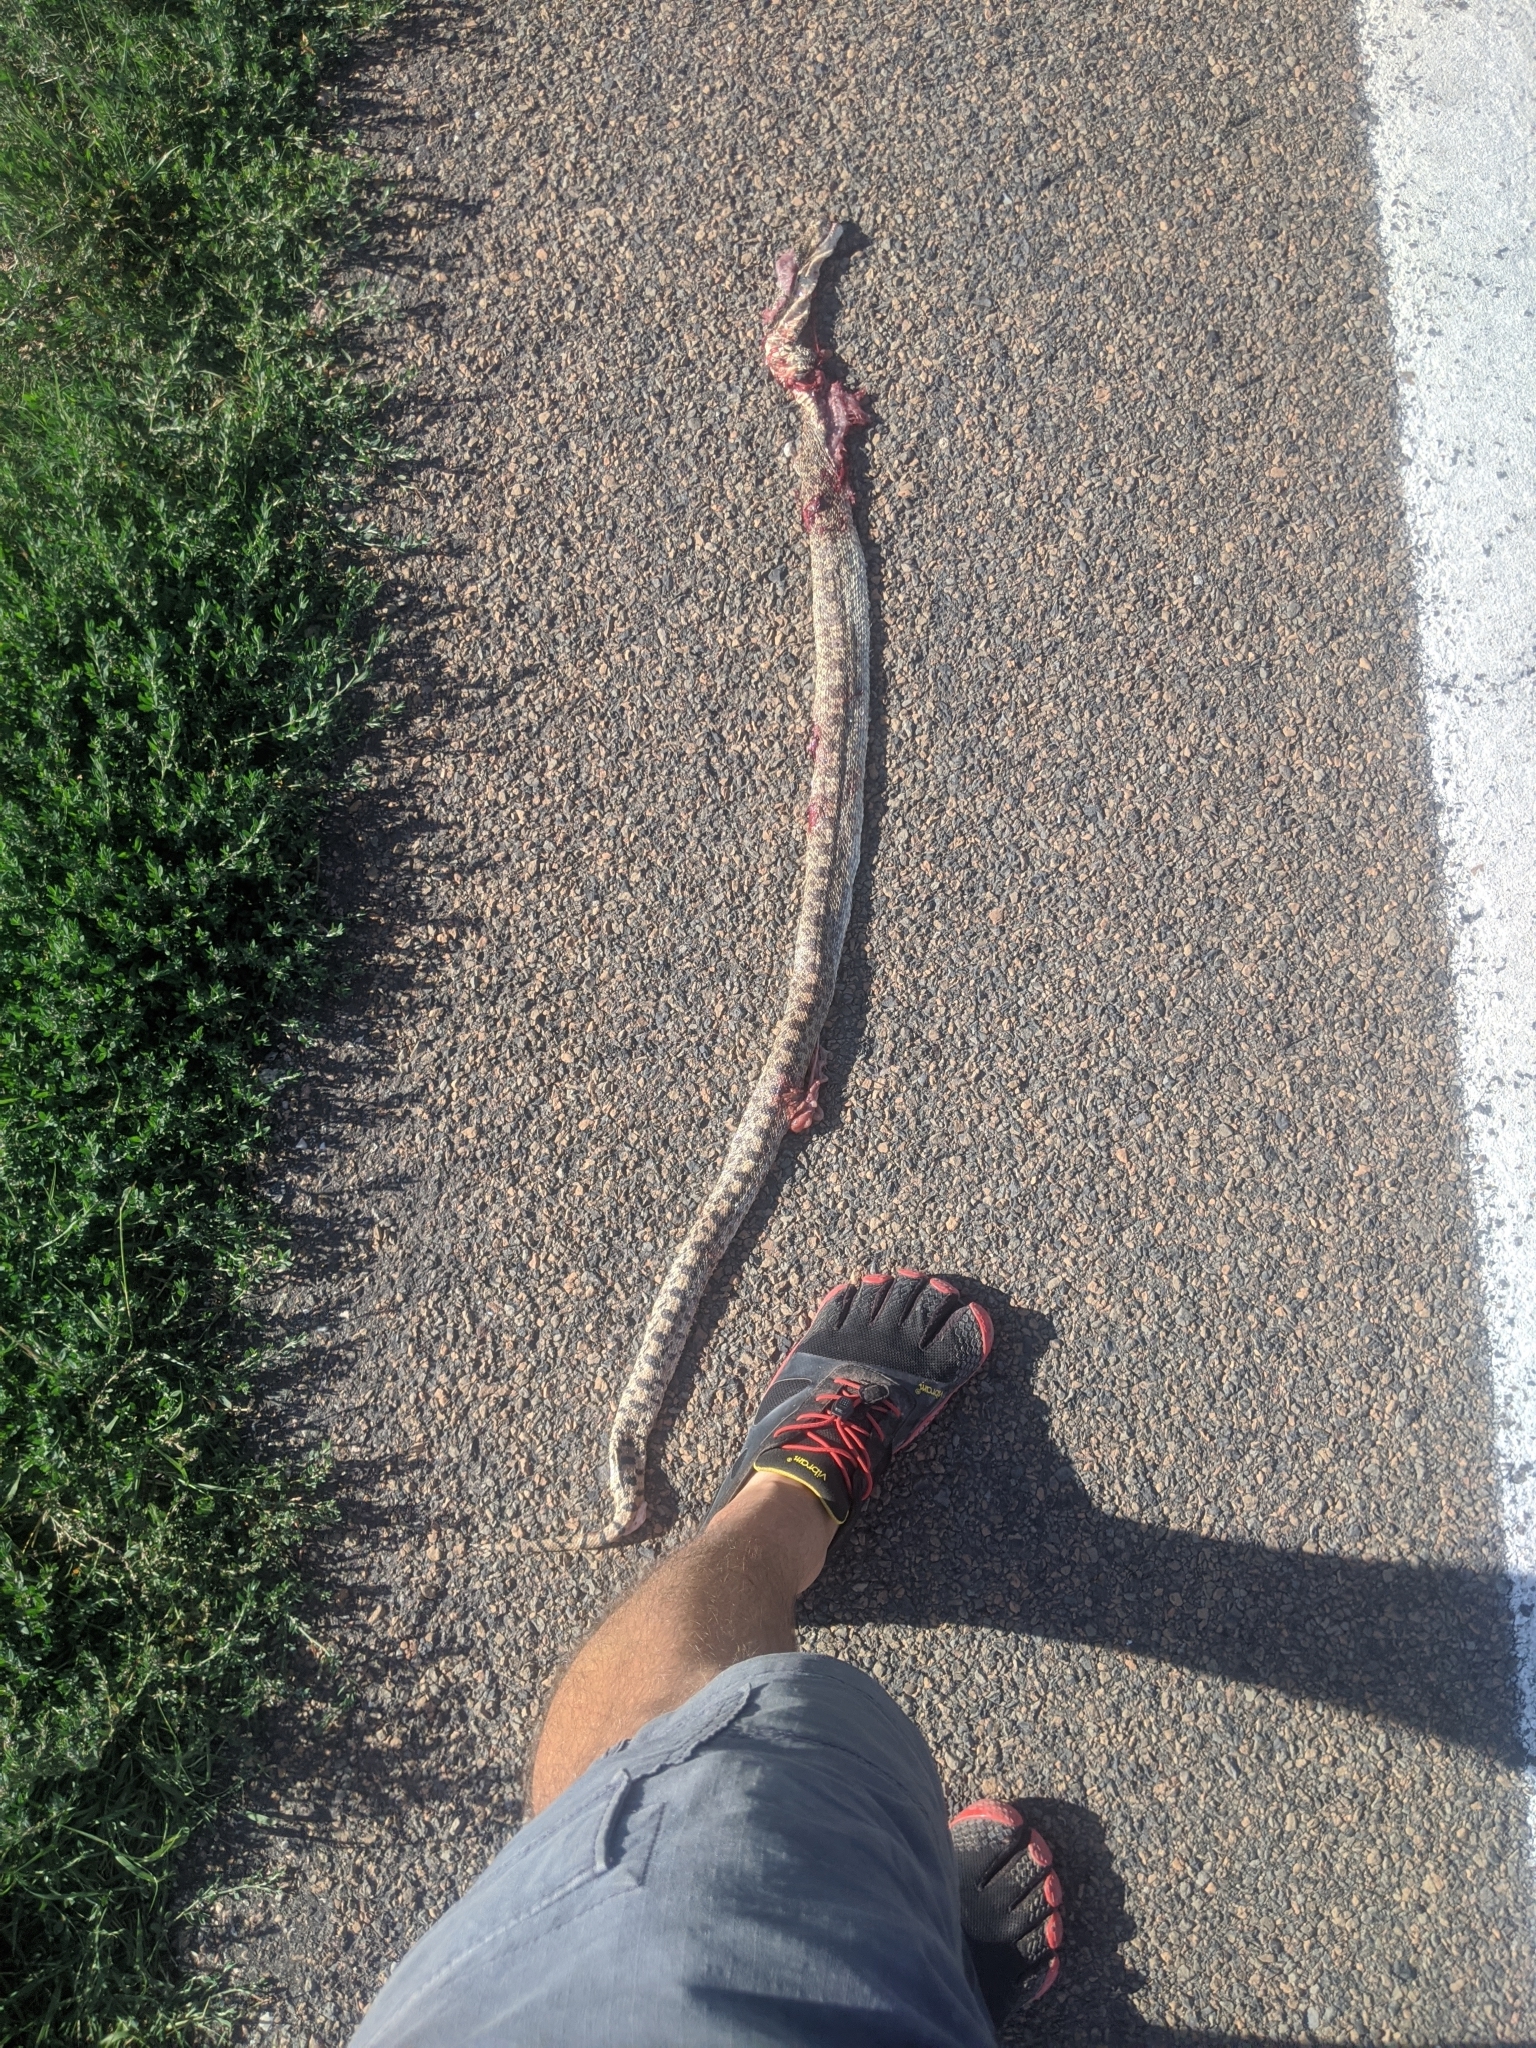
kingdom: Animalia
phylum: Chordata
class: Squamata
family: Colubridae
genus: Pituophis
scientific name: Pituophis catenifer
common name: Gopher snake
